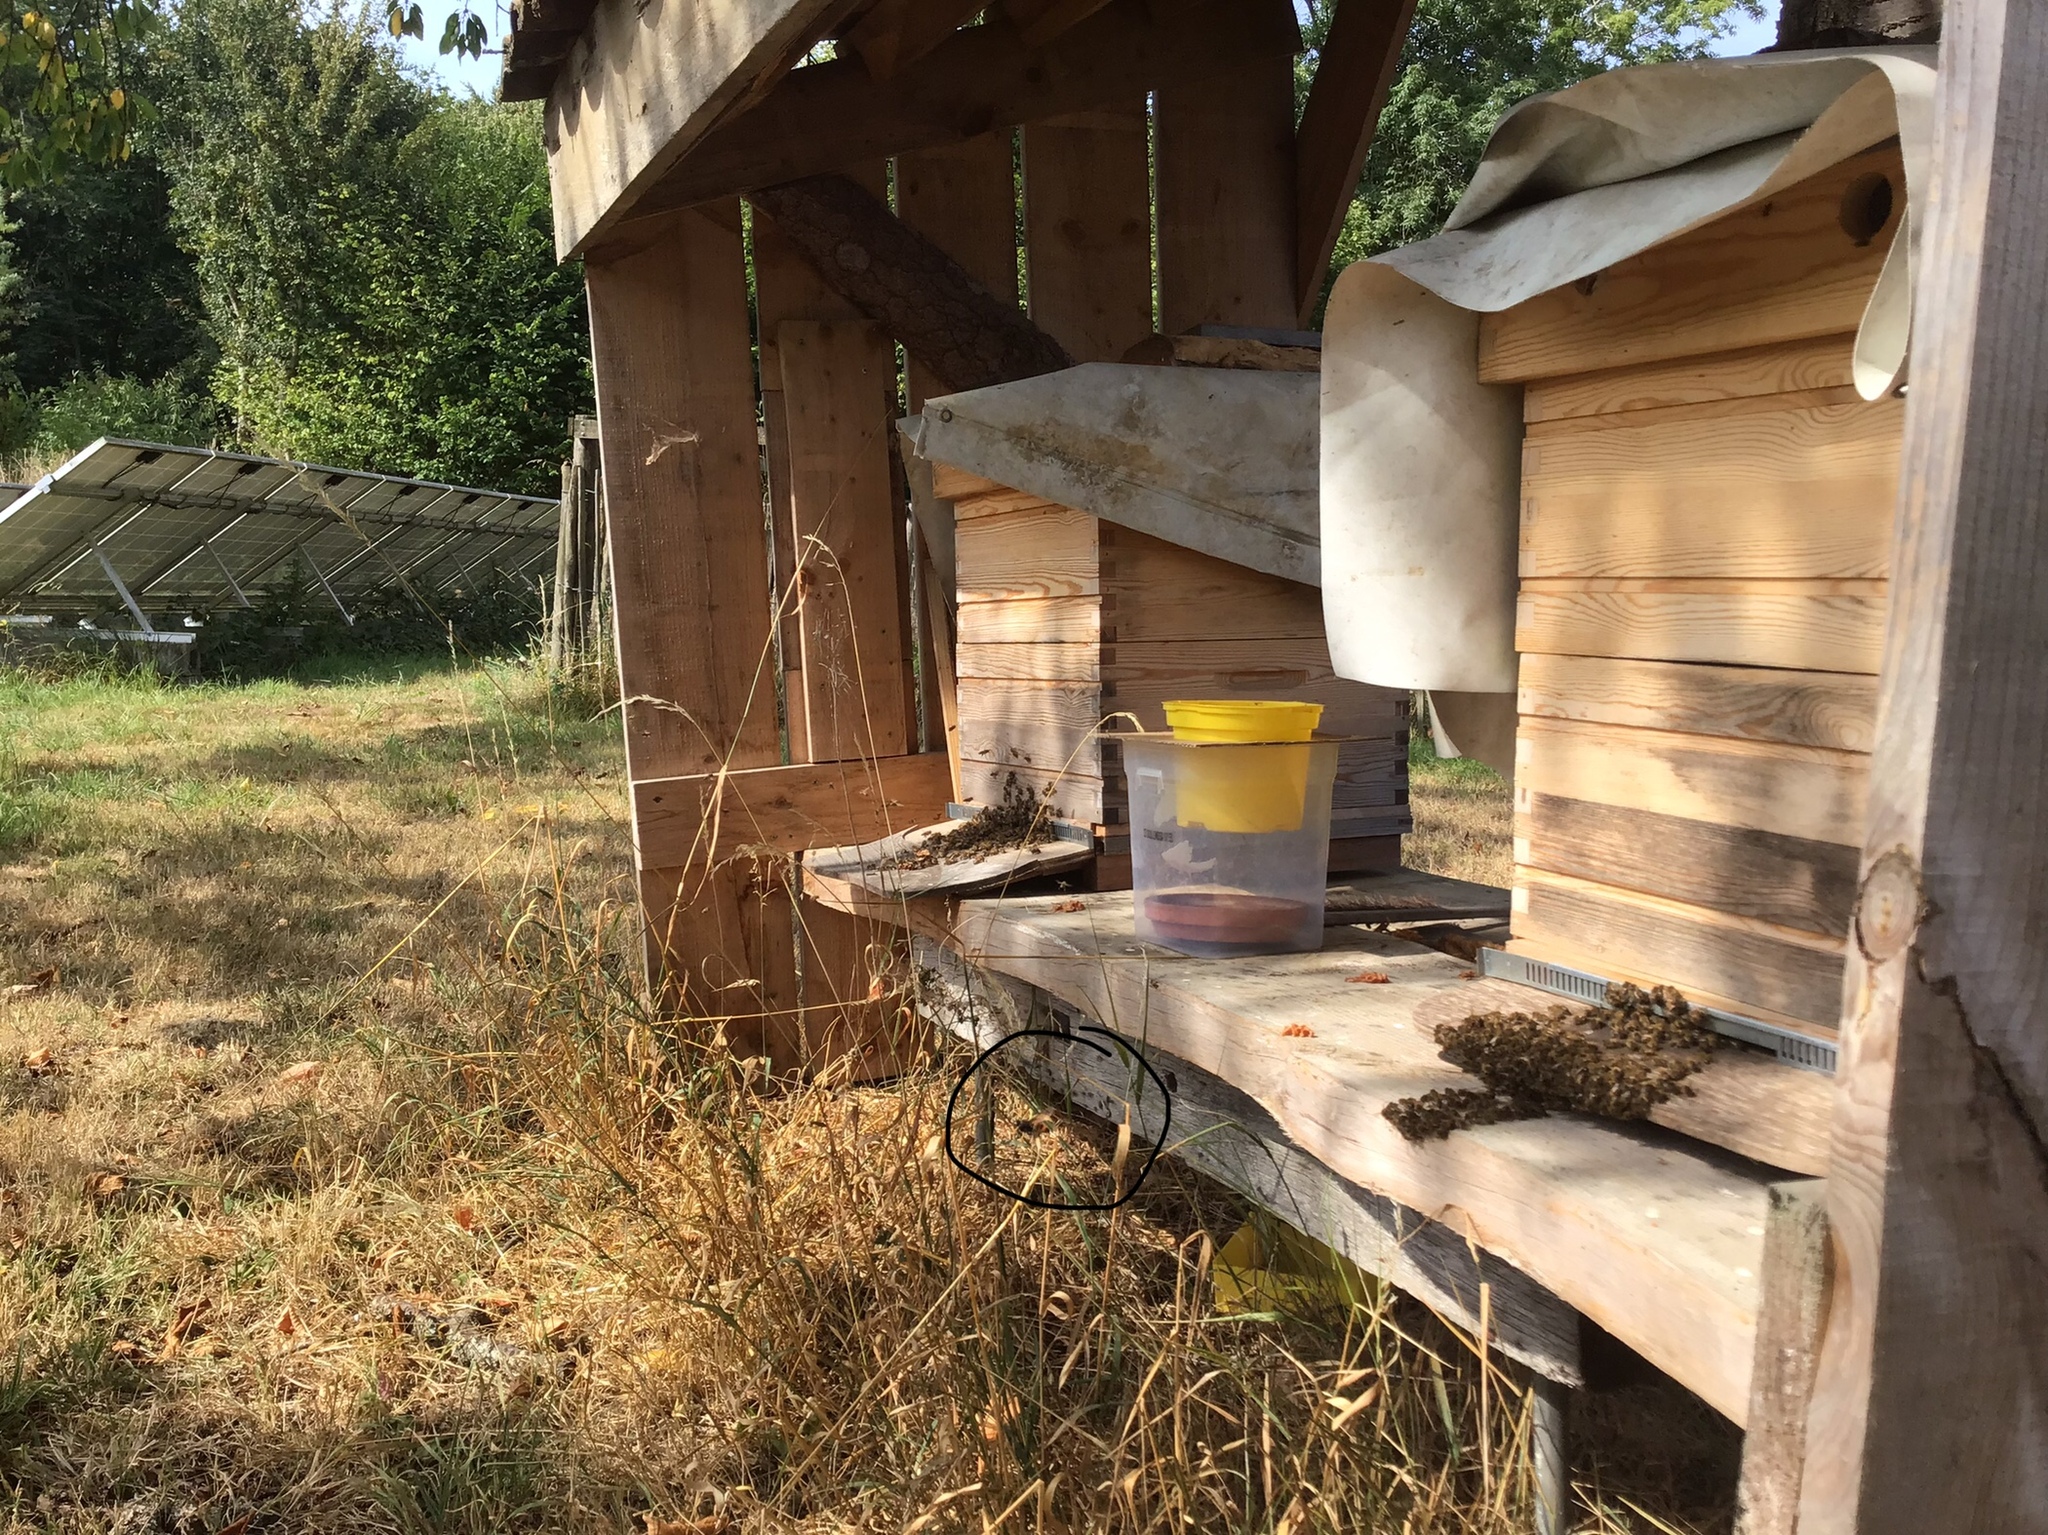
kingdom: Animalia
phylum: Arthropoda
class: Insecta
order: Hymenoptera
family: Vespidae
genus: Vespa
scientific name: Vespa velutina
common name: Asian hornet
